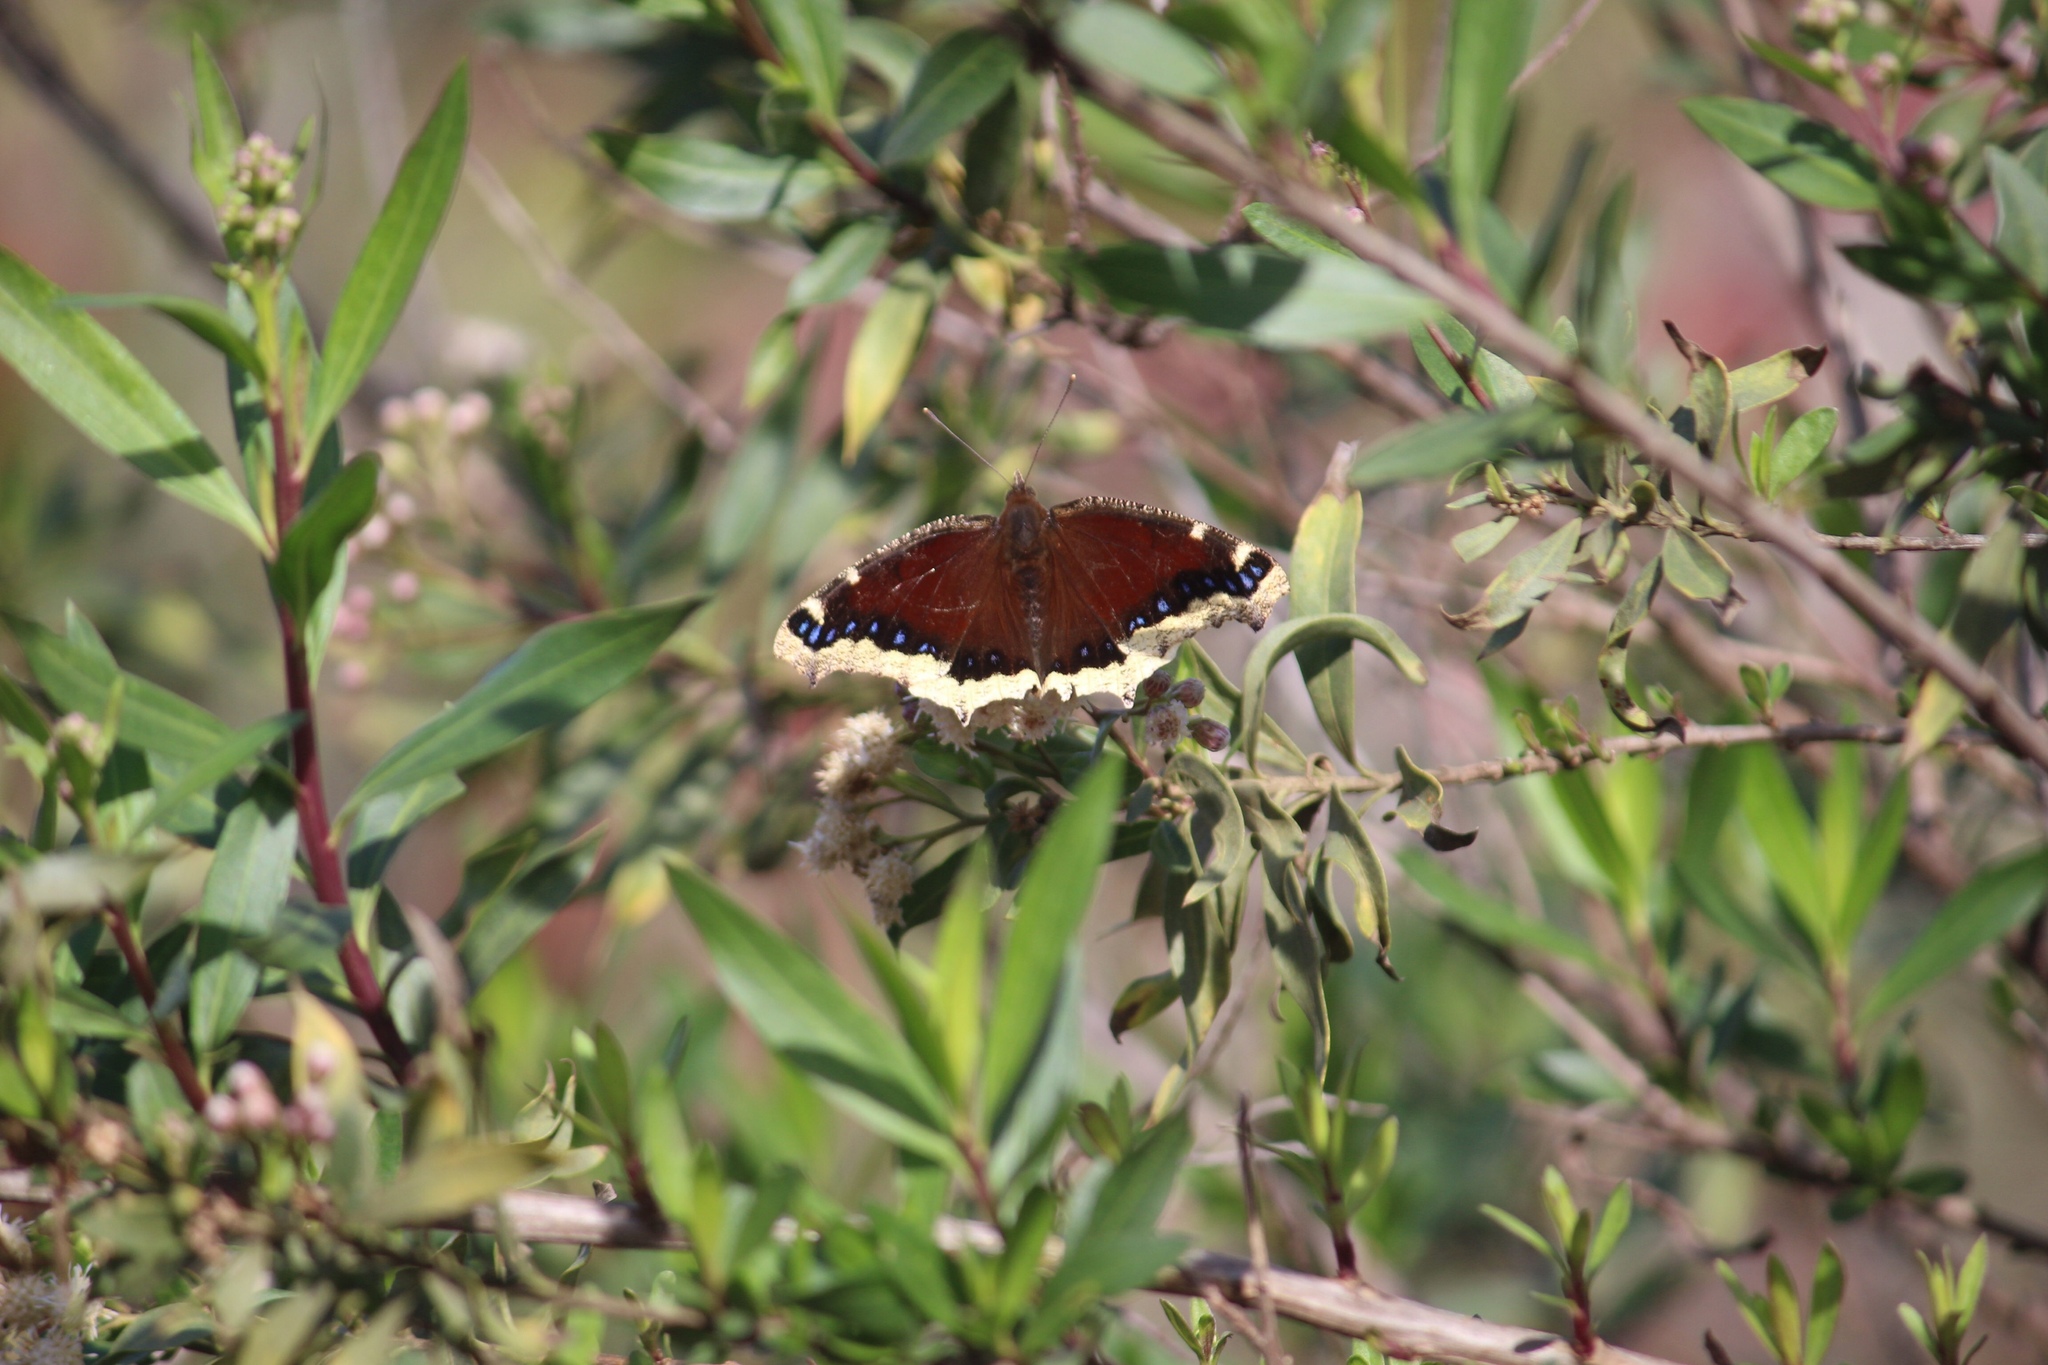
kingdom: Animalia
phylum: Arthropoda
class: Insecta
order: Lepidoptera
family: Nymphalidae
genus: Nymphalis
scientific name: Nymphalis antiopa
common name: Camberwell beauty
